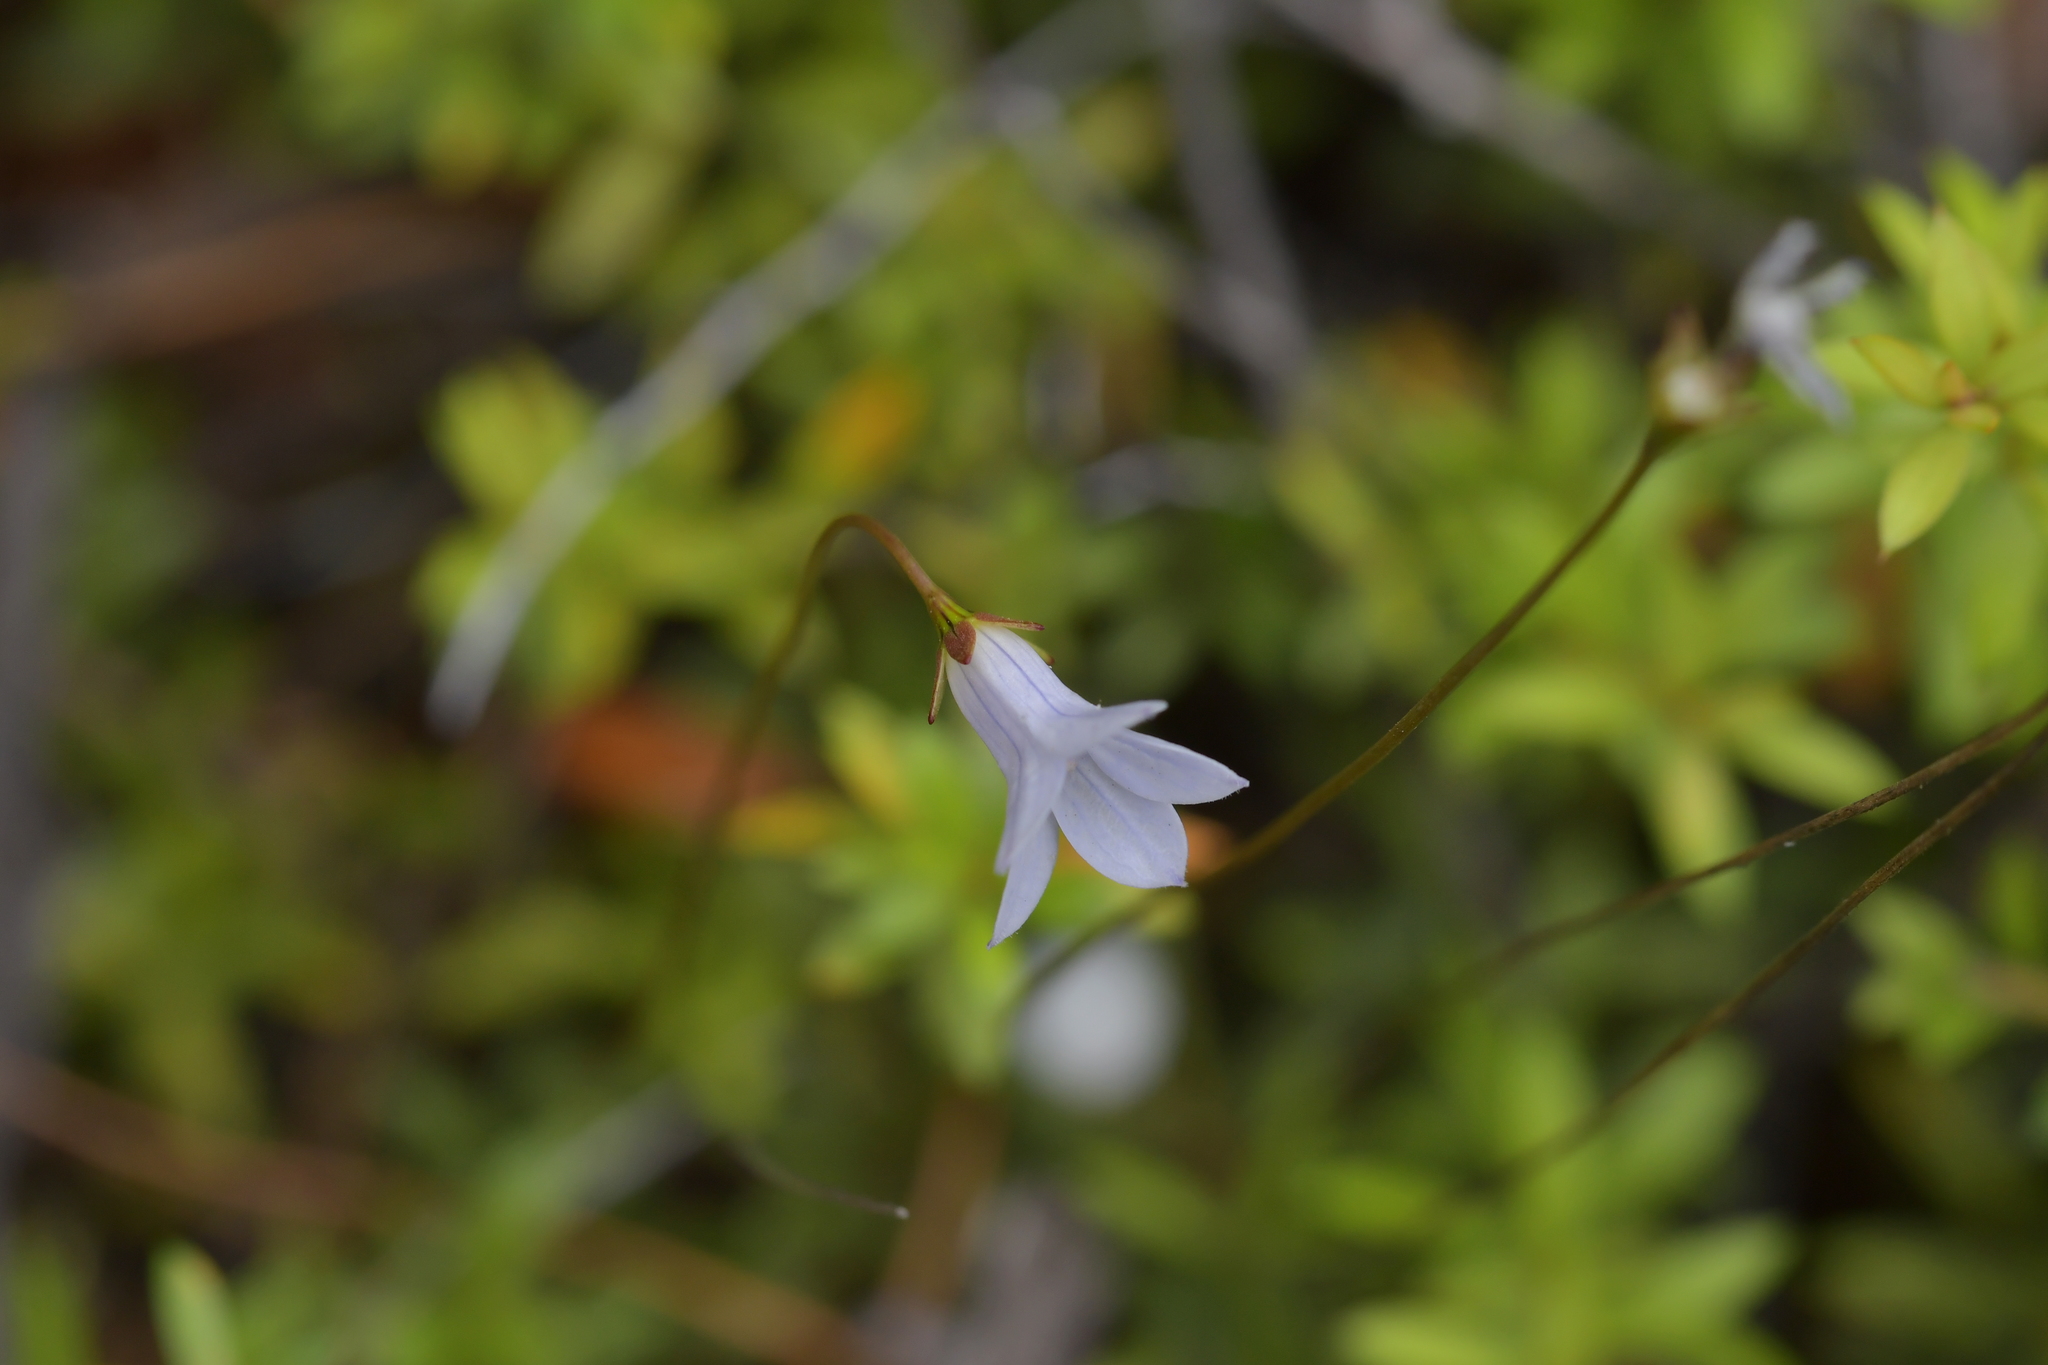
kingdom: Plantae
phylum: Tracheophyta
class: Magnoliopsida
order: Asterales
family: Campanulaceae
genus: Wahlenbergia
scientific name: Wahlenbergia albomarginata
